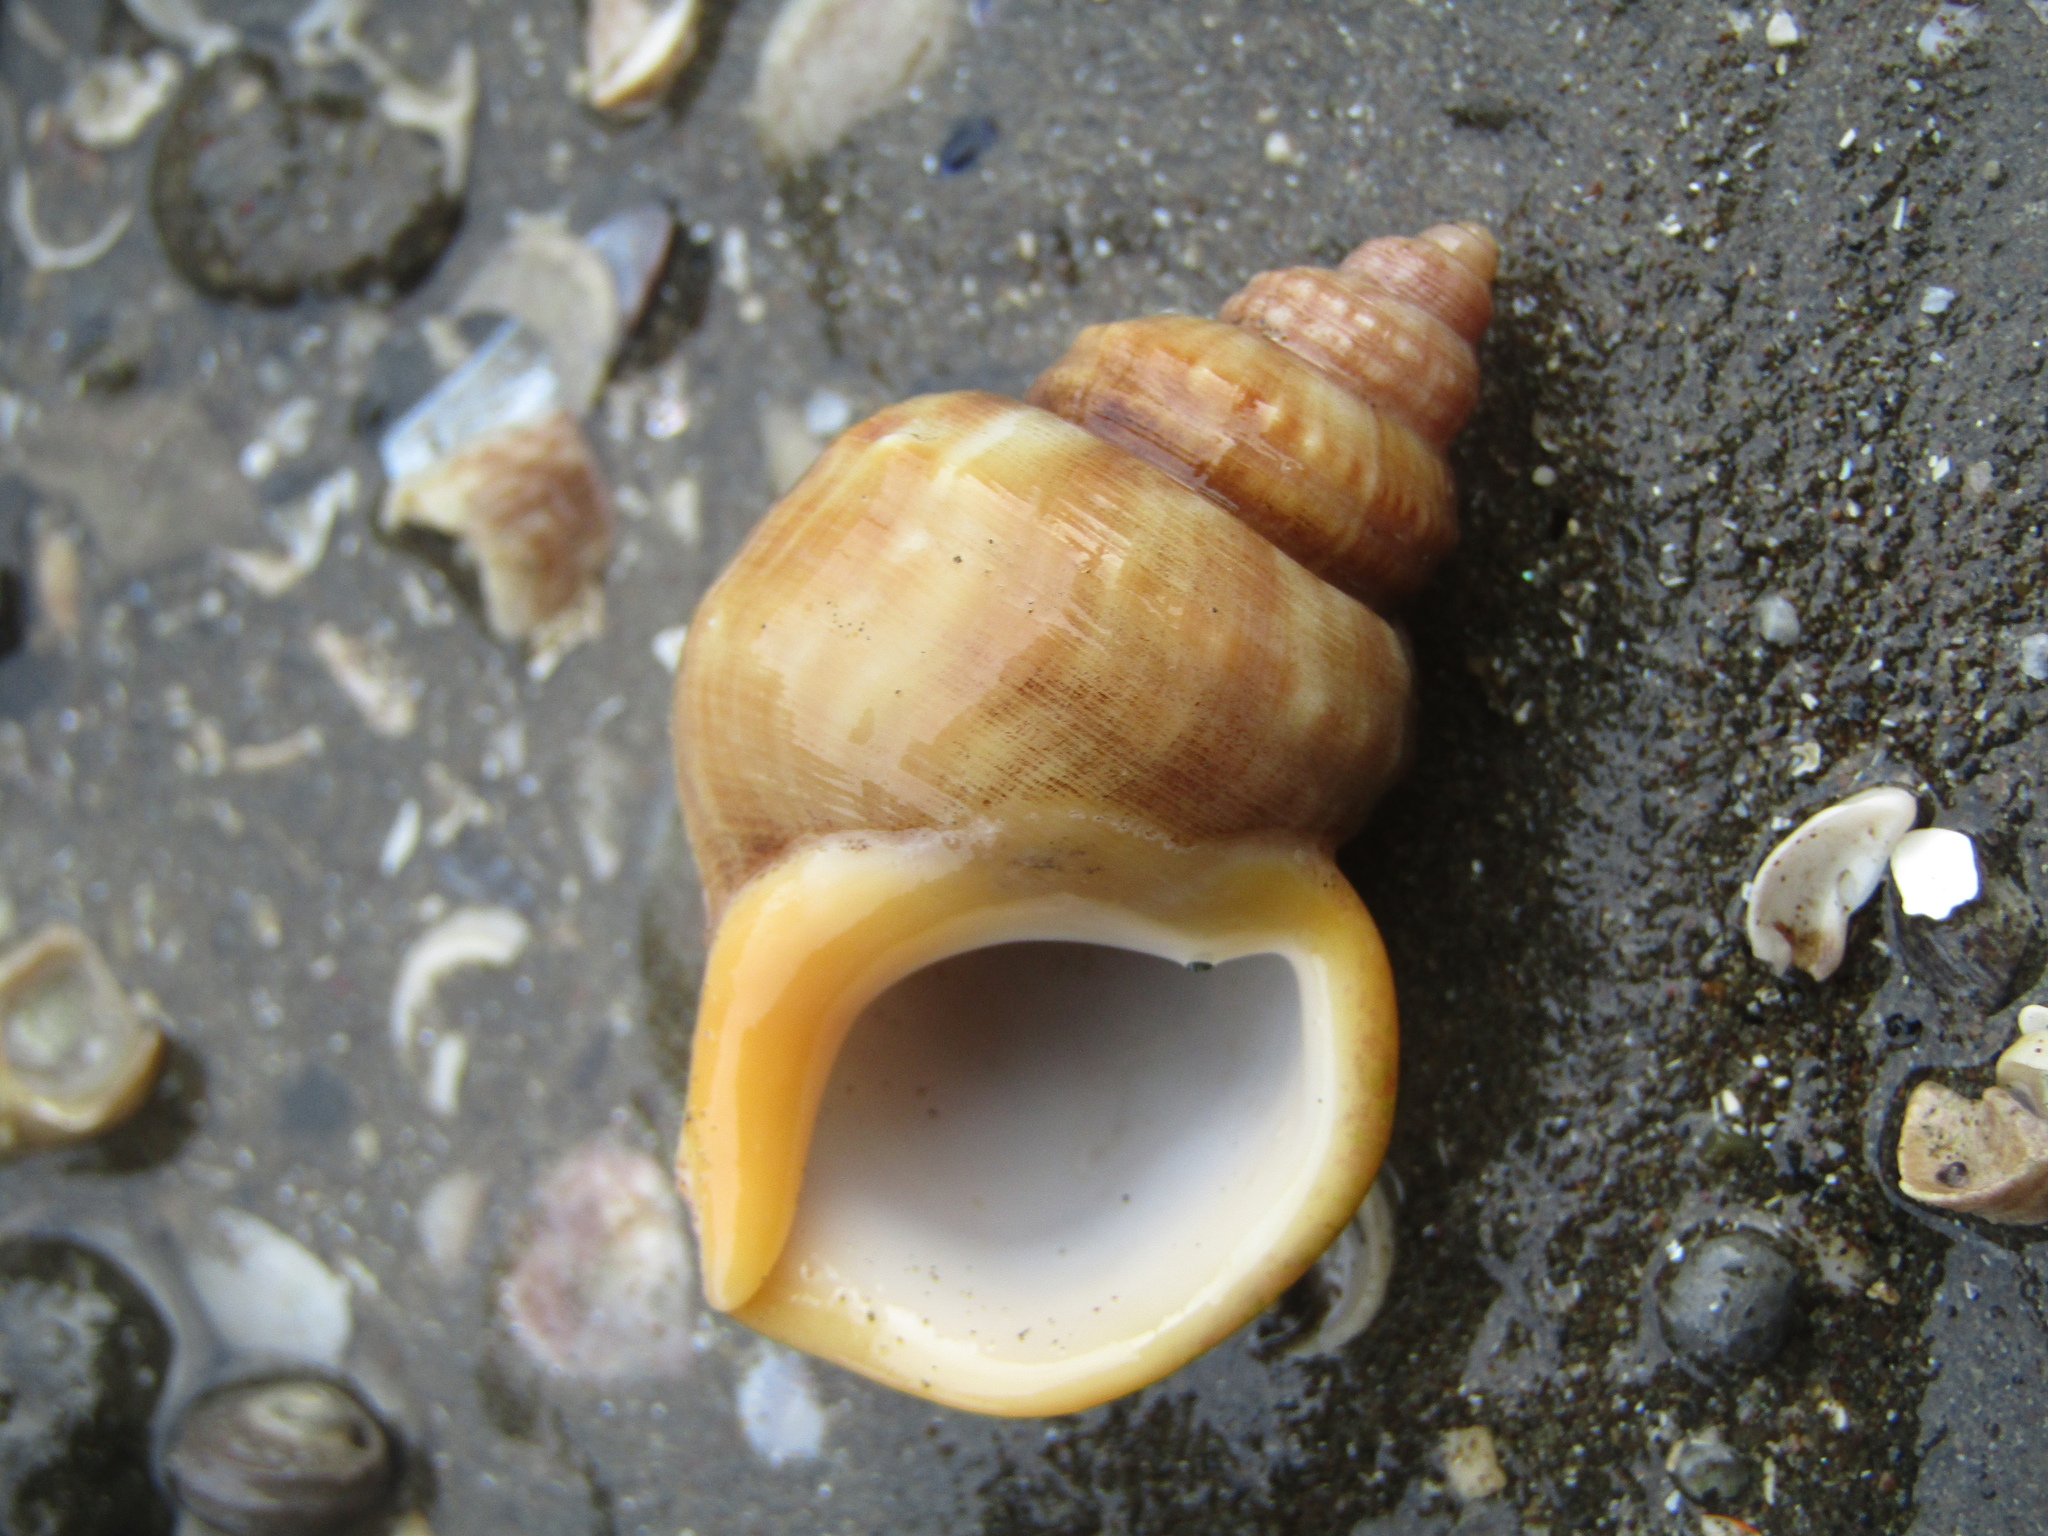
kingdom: Animalia
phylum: Mollusca
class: Gastropoda
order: Littorinimorpha
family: Struthiolariidae
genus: Pelicaria
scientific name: Pelicaria vermis
